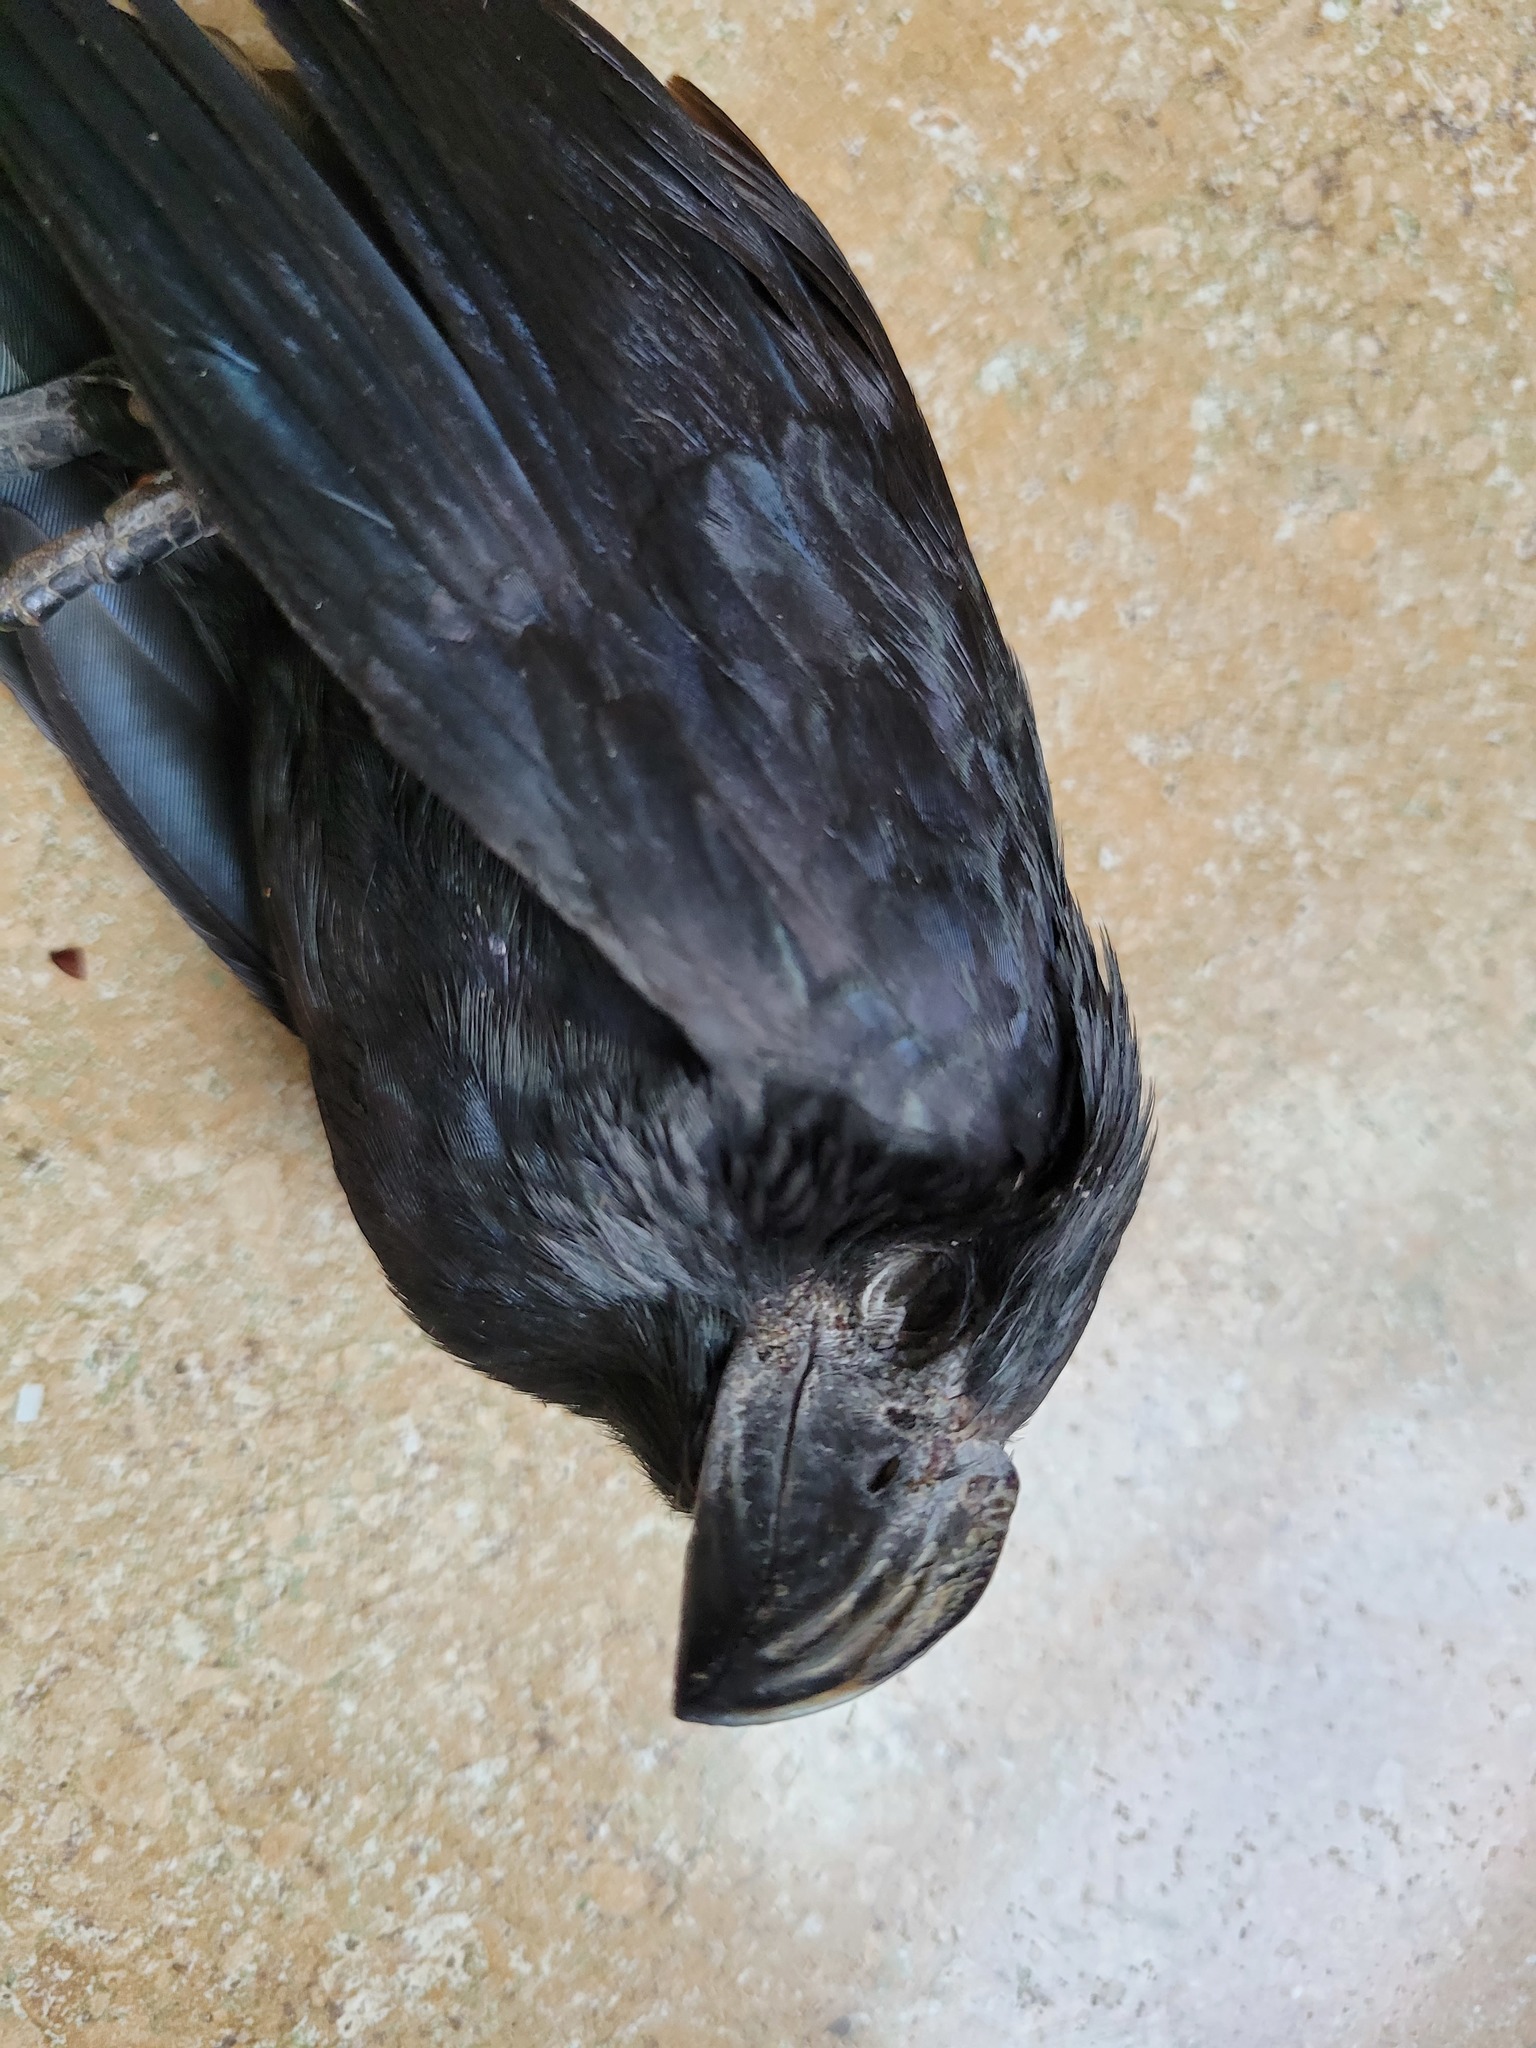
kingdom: Animalia
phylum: Chordata
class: Aves
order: Cuculiformes
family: Cuculidae
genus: Crotophaga
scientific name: Crotophaga sulcirostris
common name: Groove-billed ani
